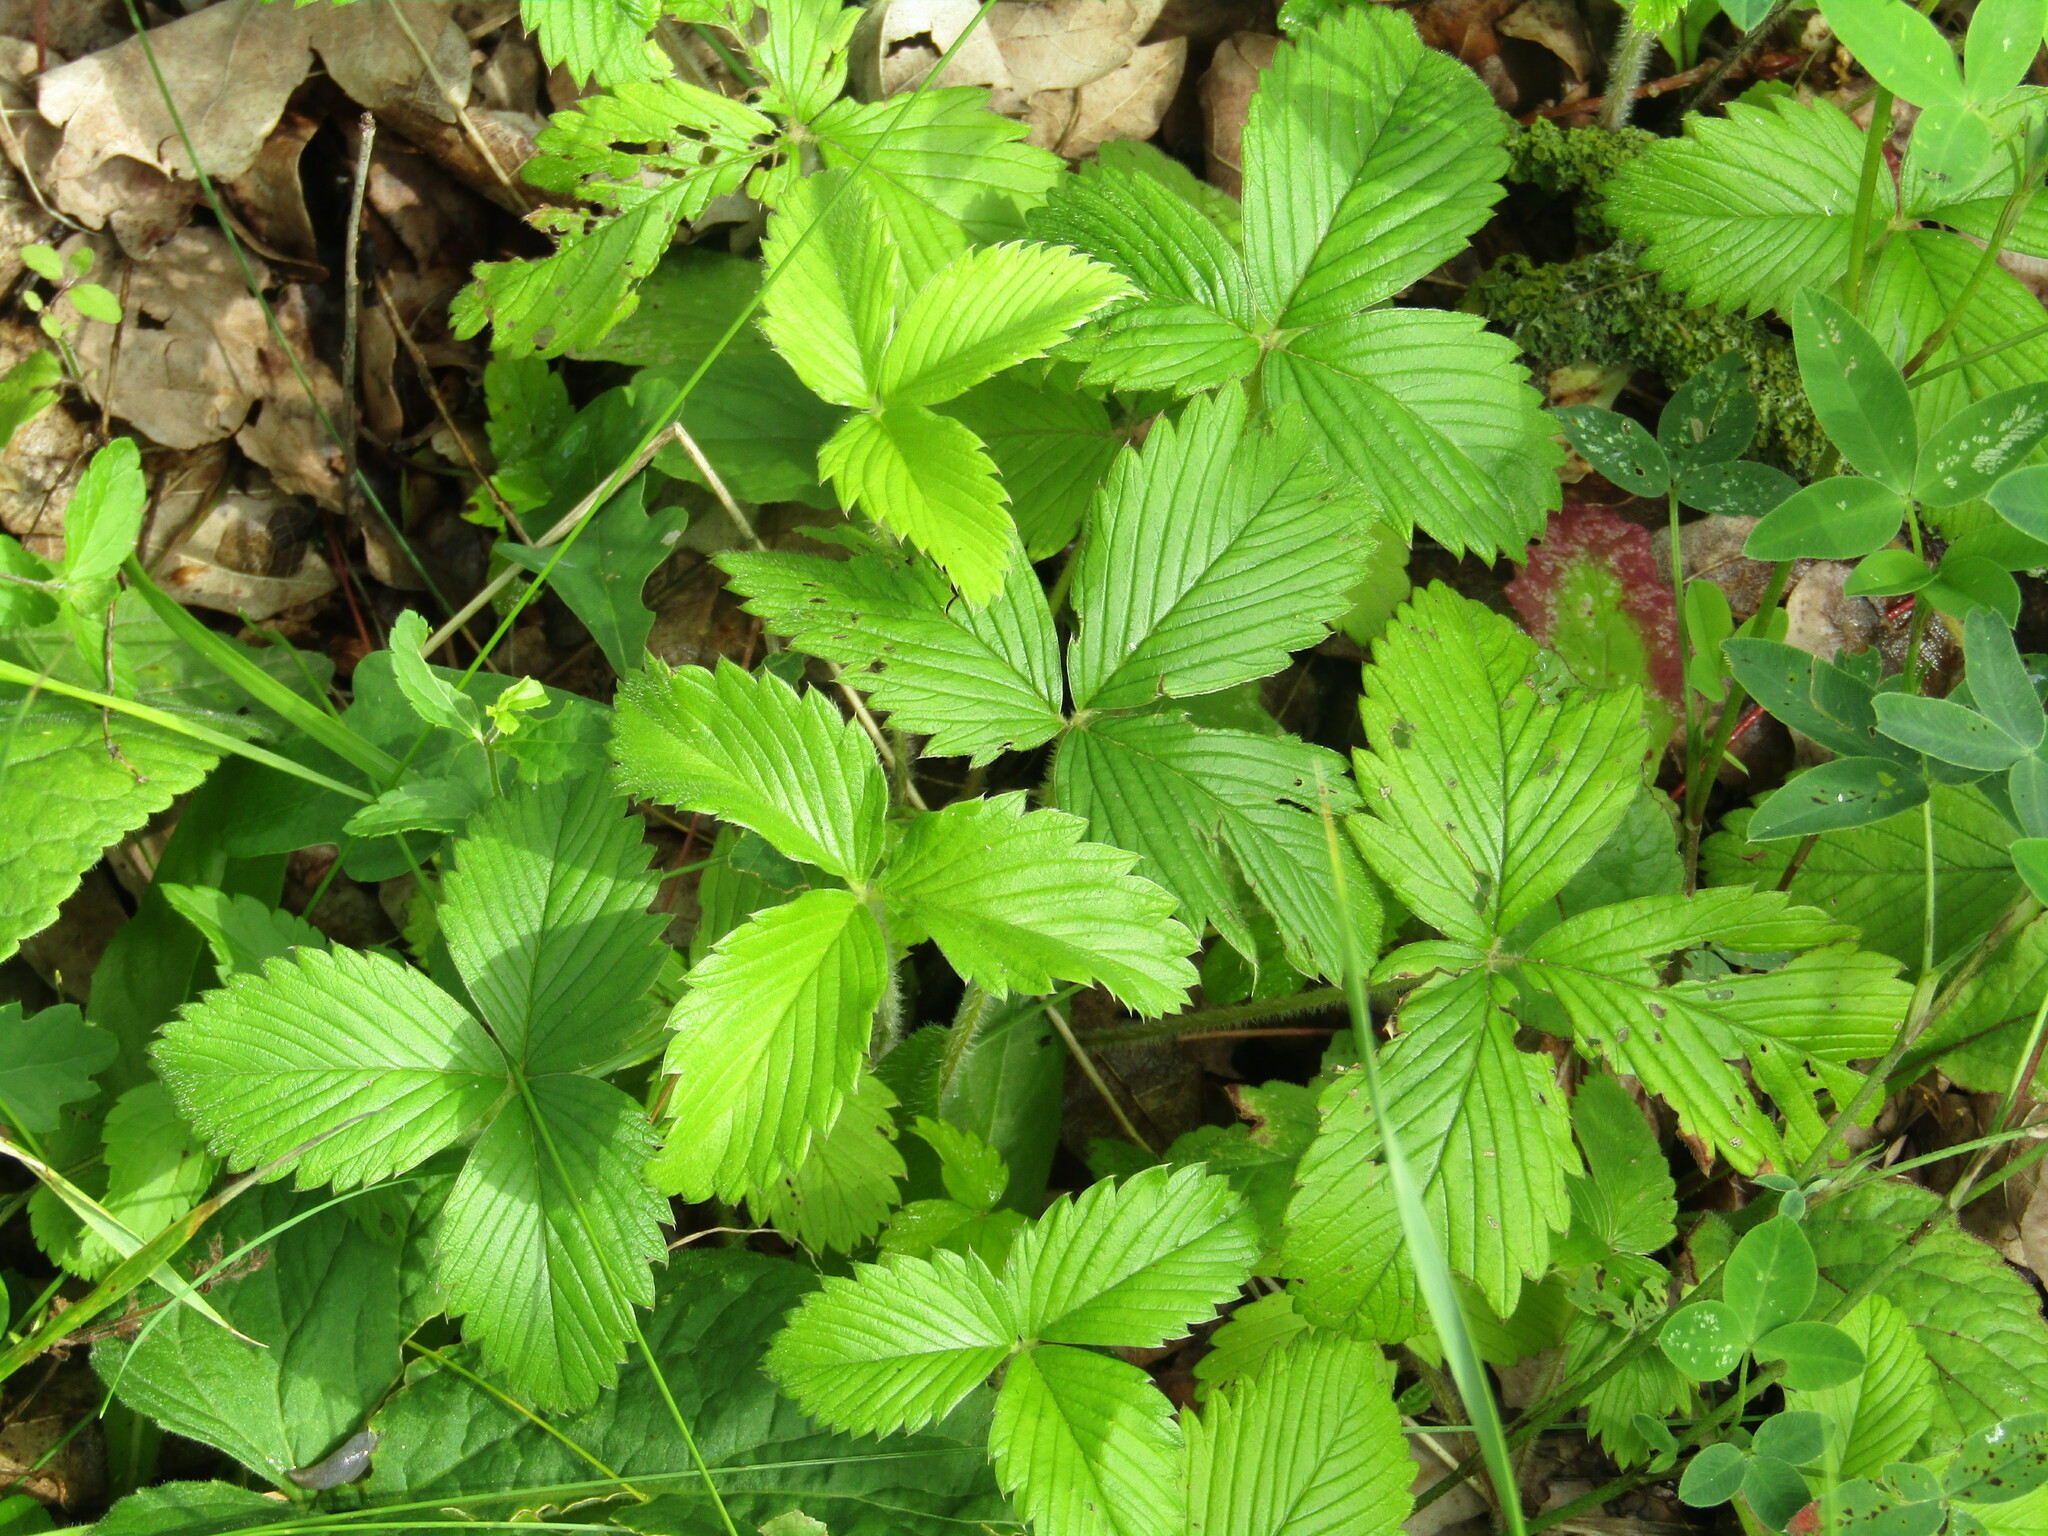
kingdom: Plantae
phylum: Tracheophyta
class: Magnoliopsida
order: Rosales
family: Rosaceae
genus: Fragaria
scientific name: Fragaria viridis
